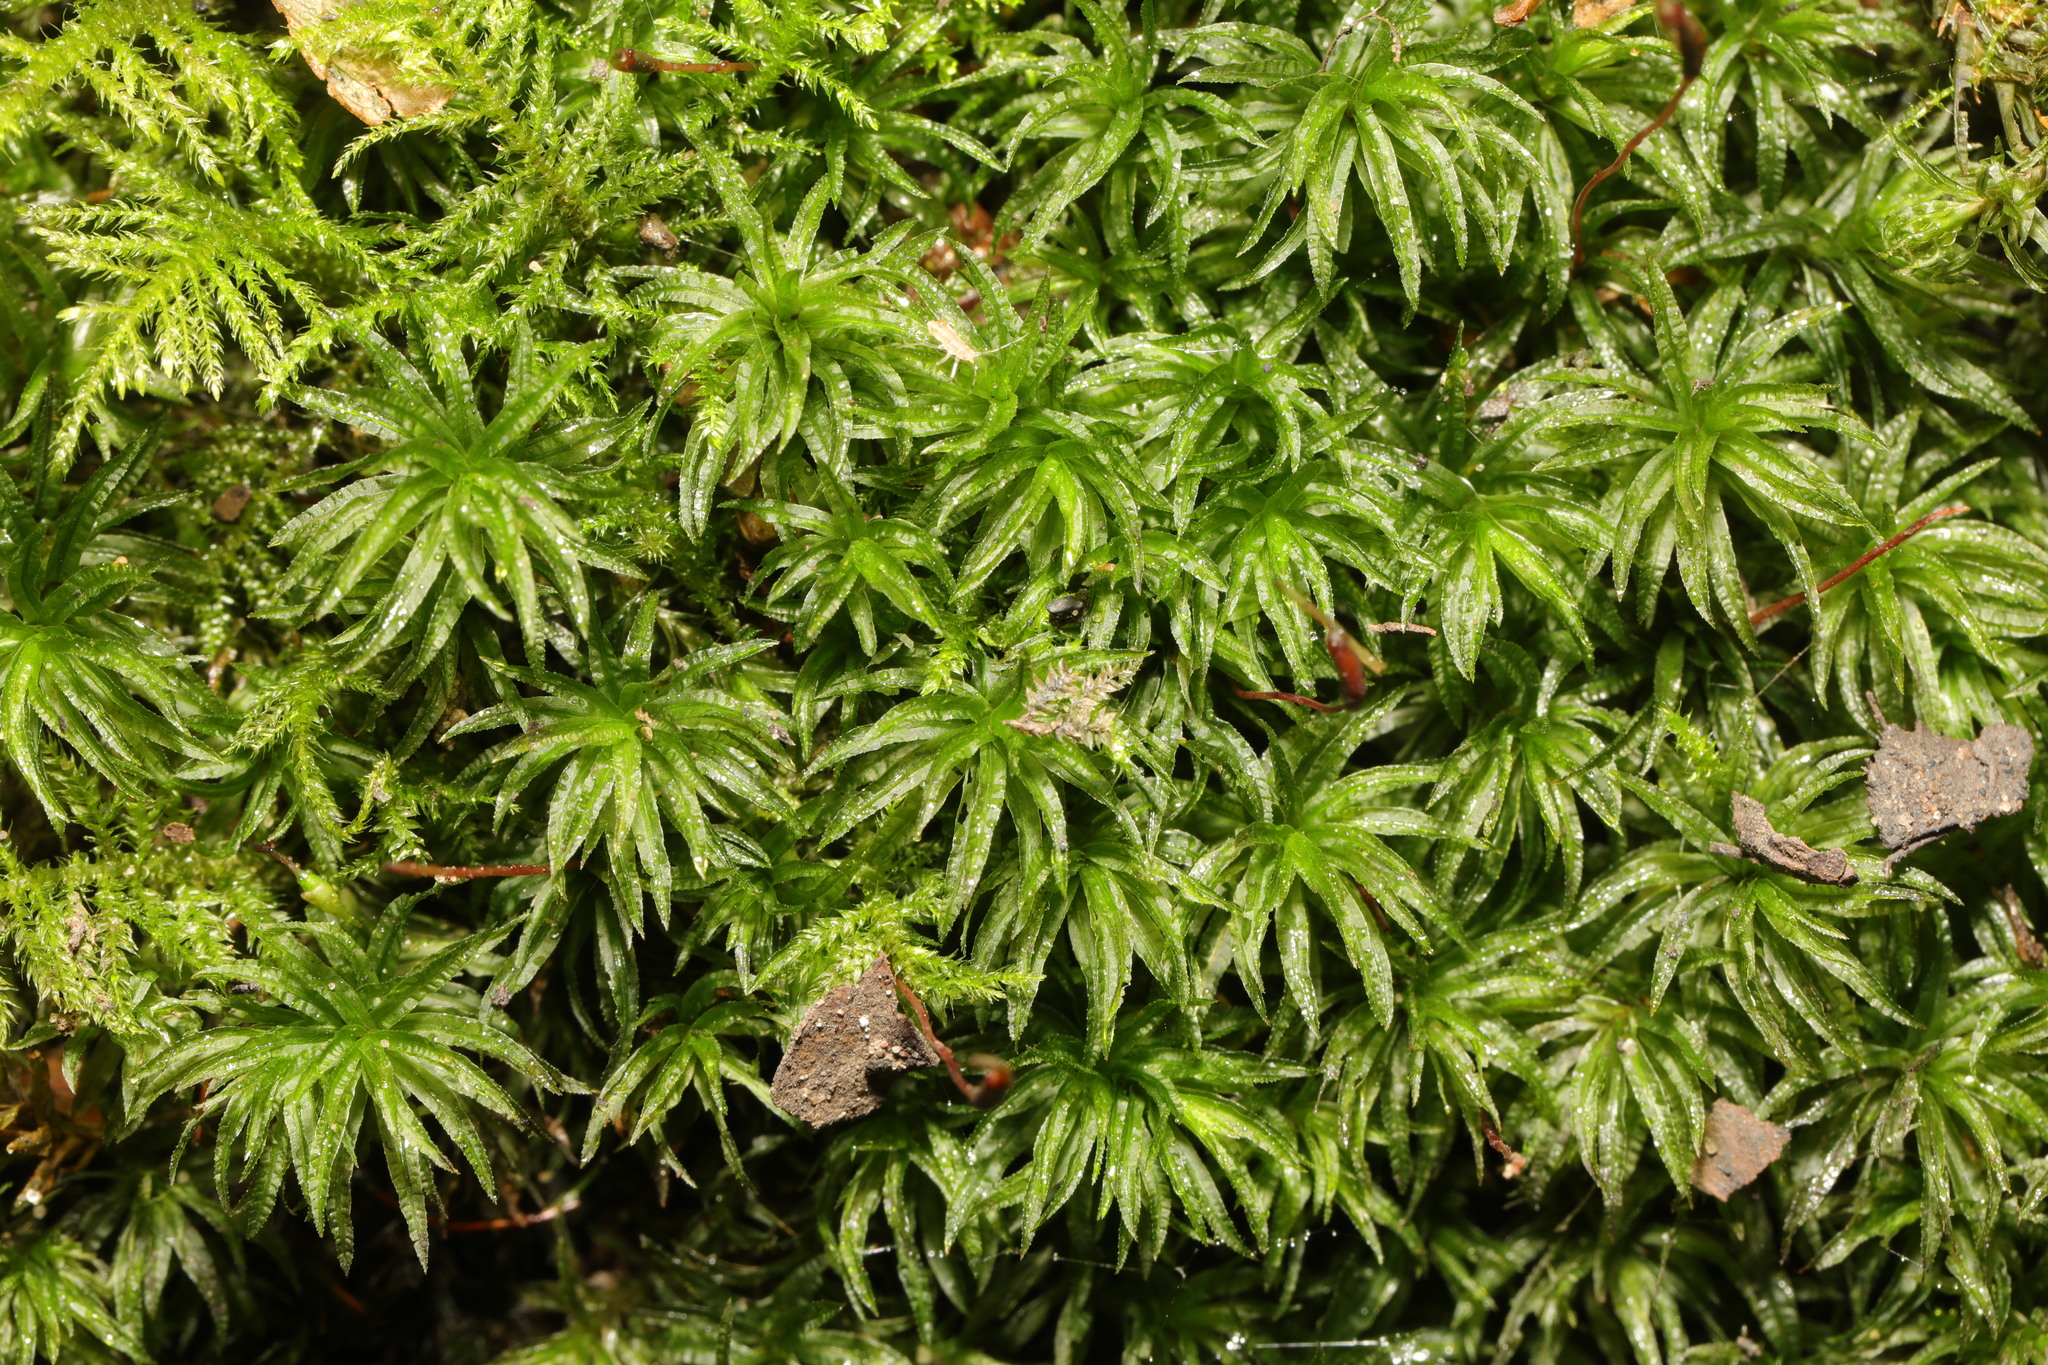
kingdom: Plantae
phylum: Bryophyta
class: Polytrichopsida
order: Polytrichales
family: Polytrichaceae
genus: Atrichum
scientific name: Atrichum undulatum
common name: Common smoothcap
